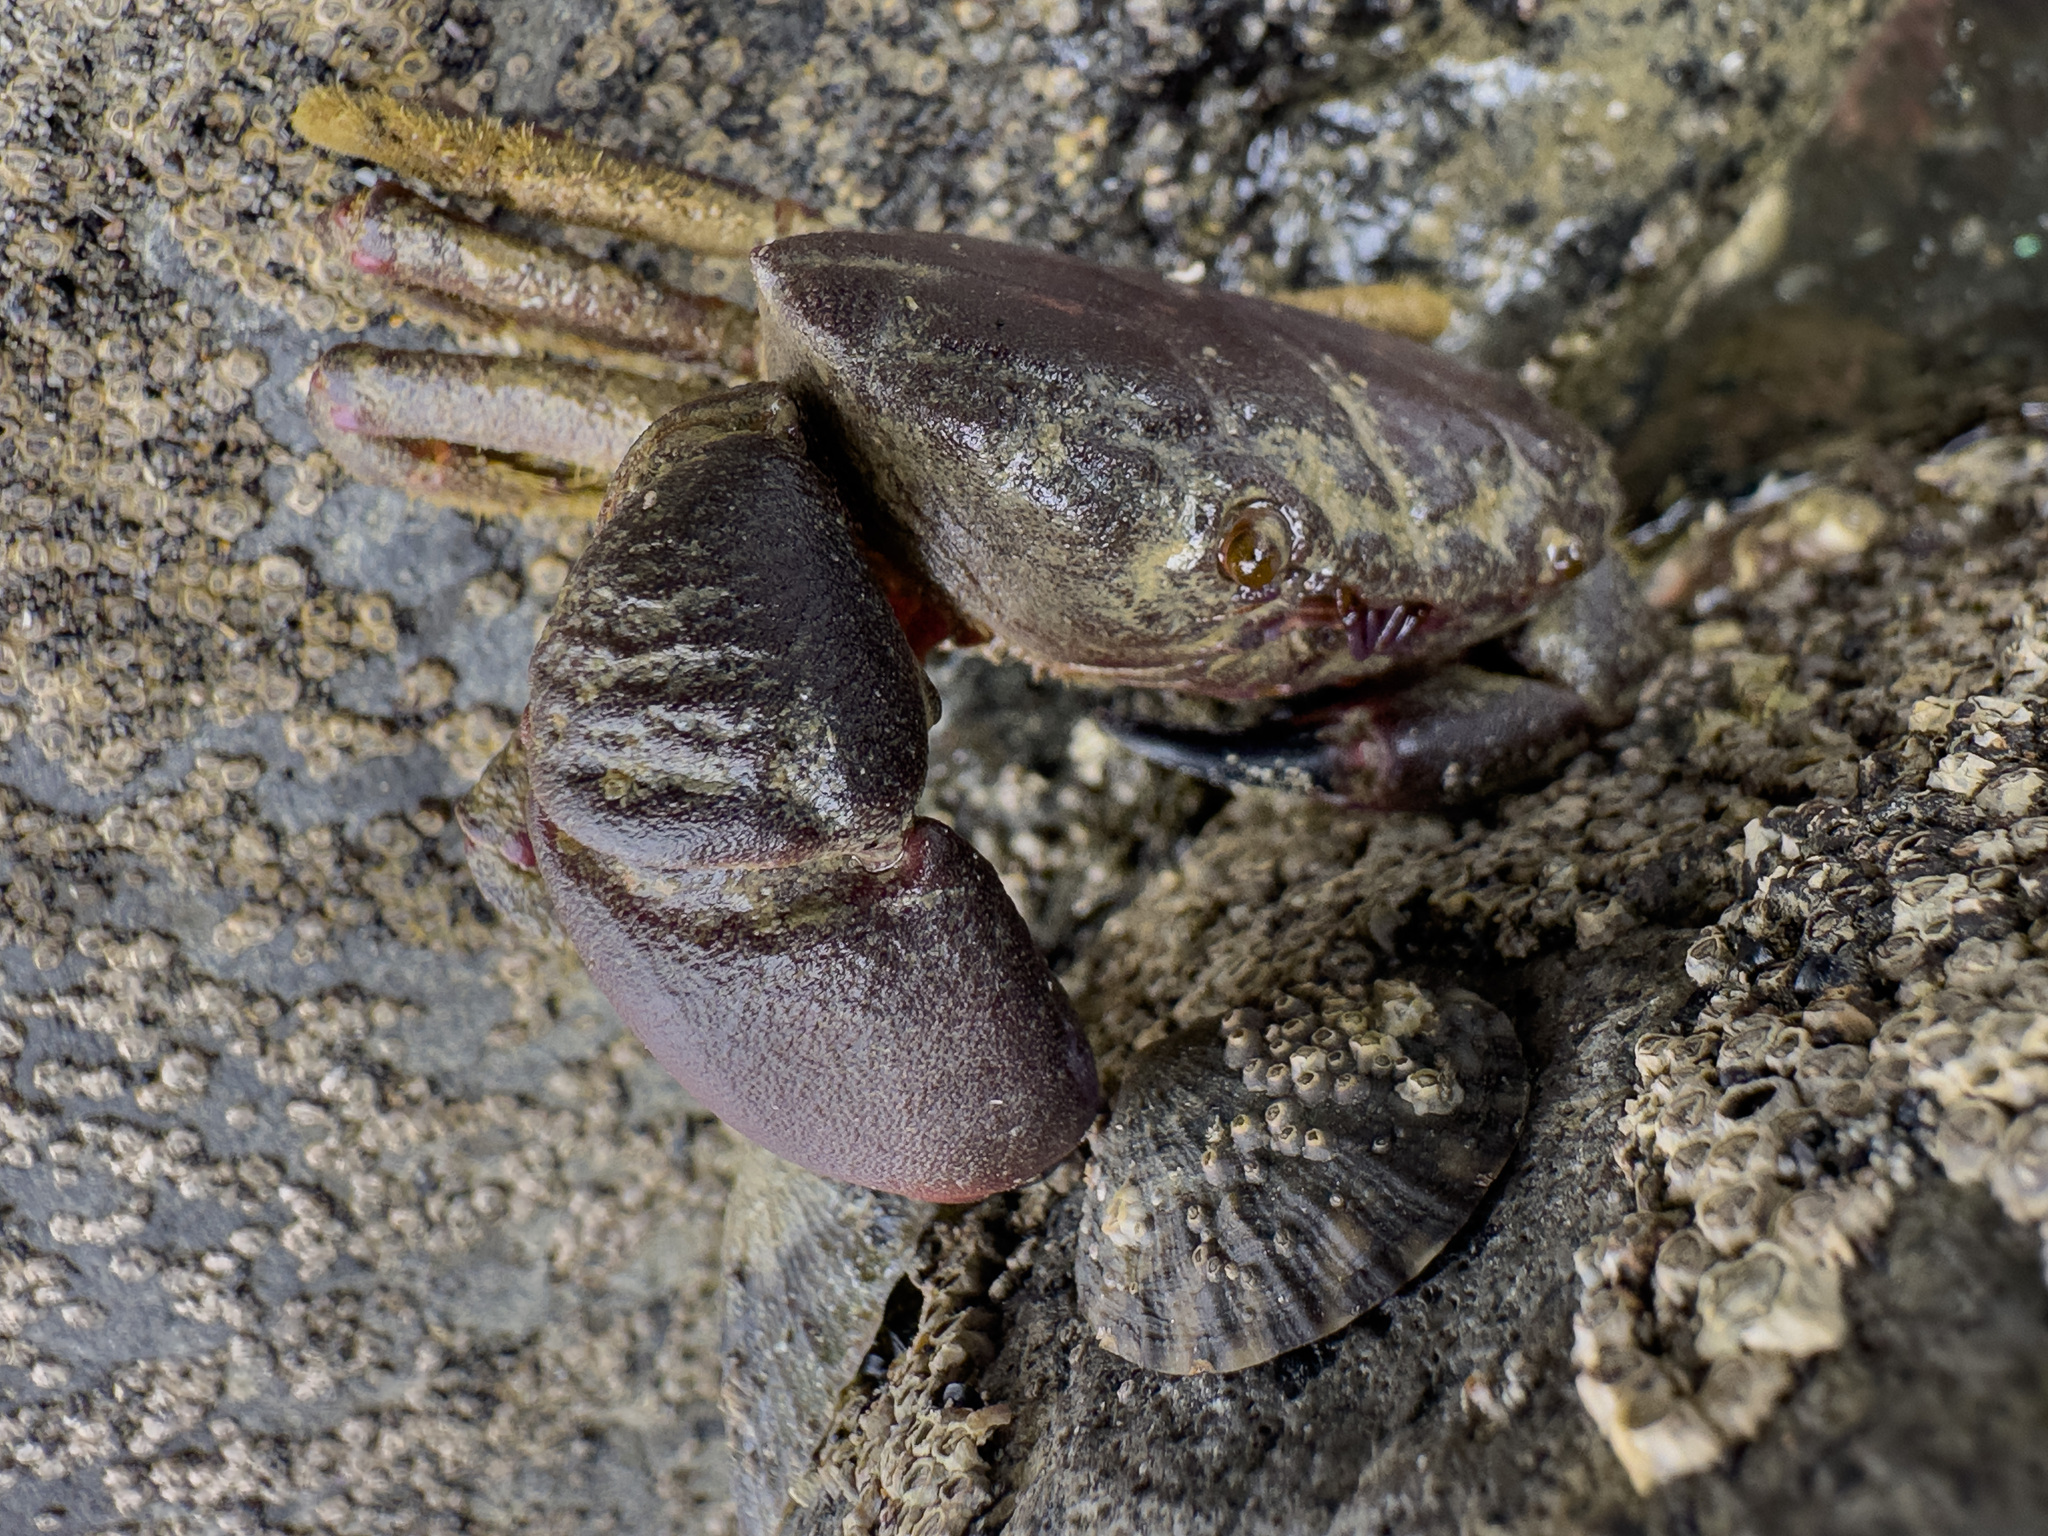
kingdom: Animalia
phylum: Arthropoda
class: Malacostraca
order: Decapoda
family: Oziidae
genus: Ozius
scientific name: Ozius deplanatus
